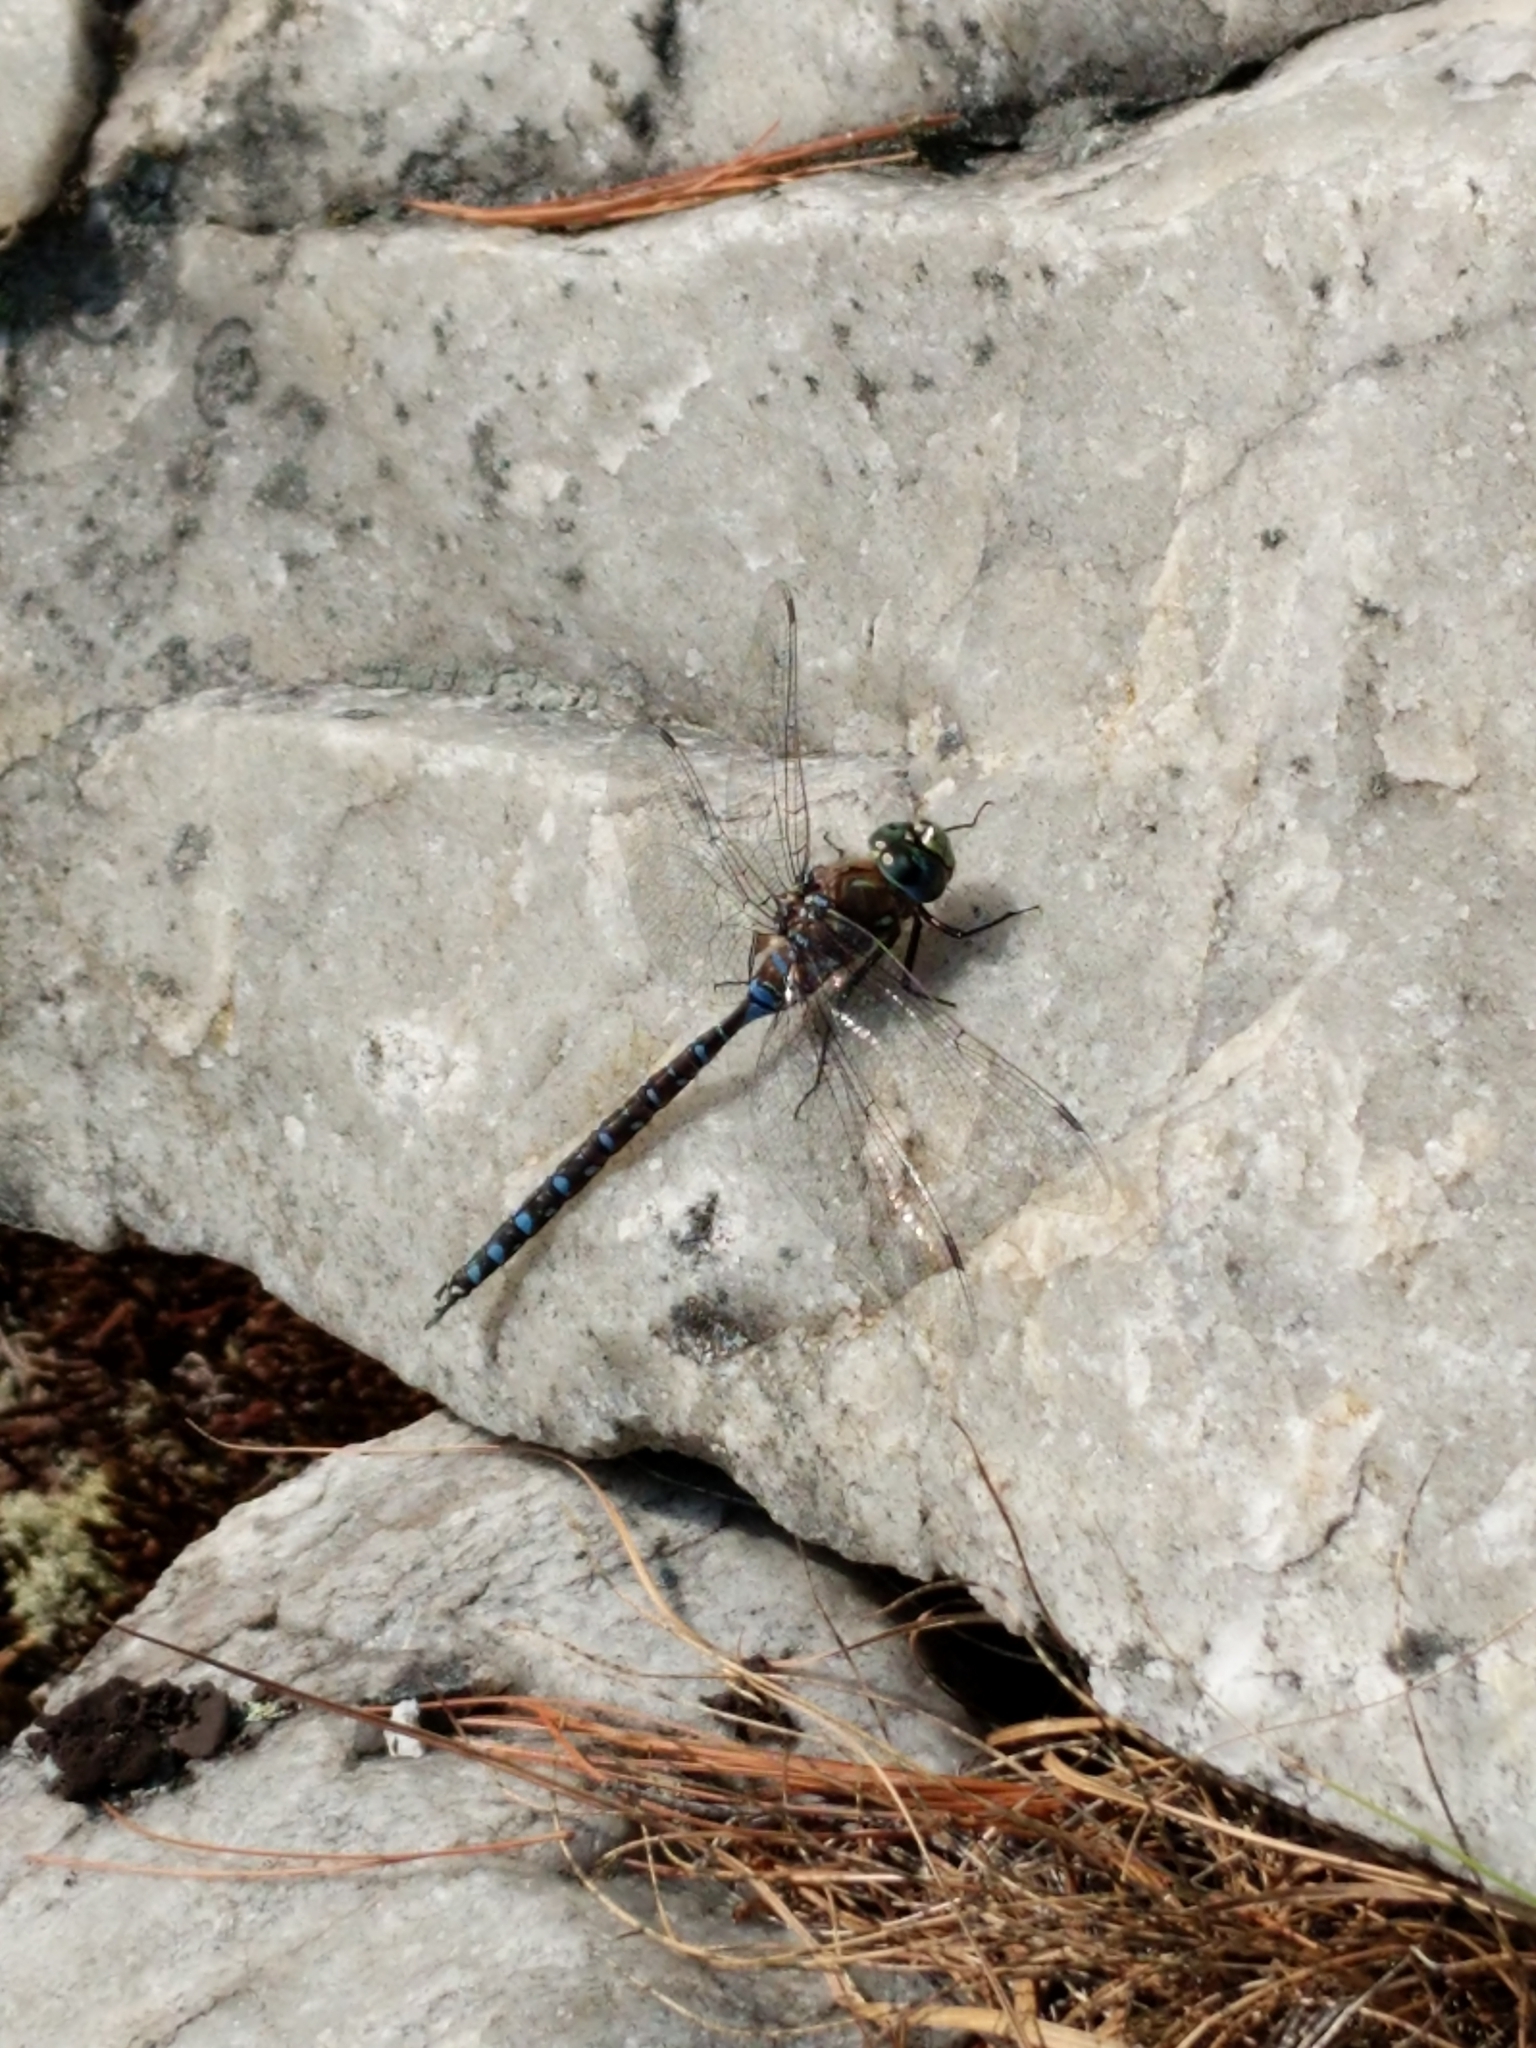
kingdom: Animalia
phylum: Arthropoda
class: Insecta
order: Odonata
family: Aeshnidae
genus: Aeshna
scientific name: Aeshna interrupta
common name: Variable darner
